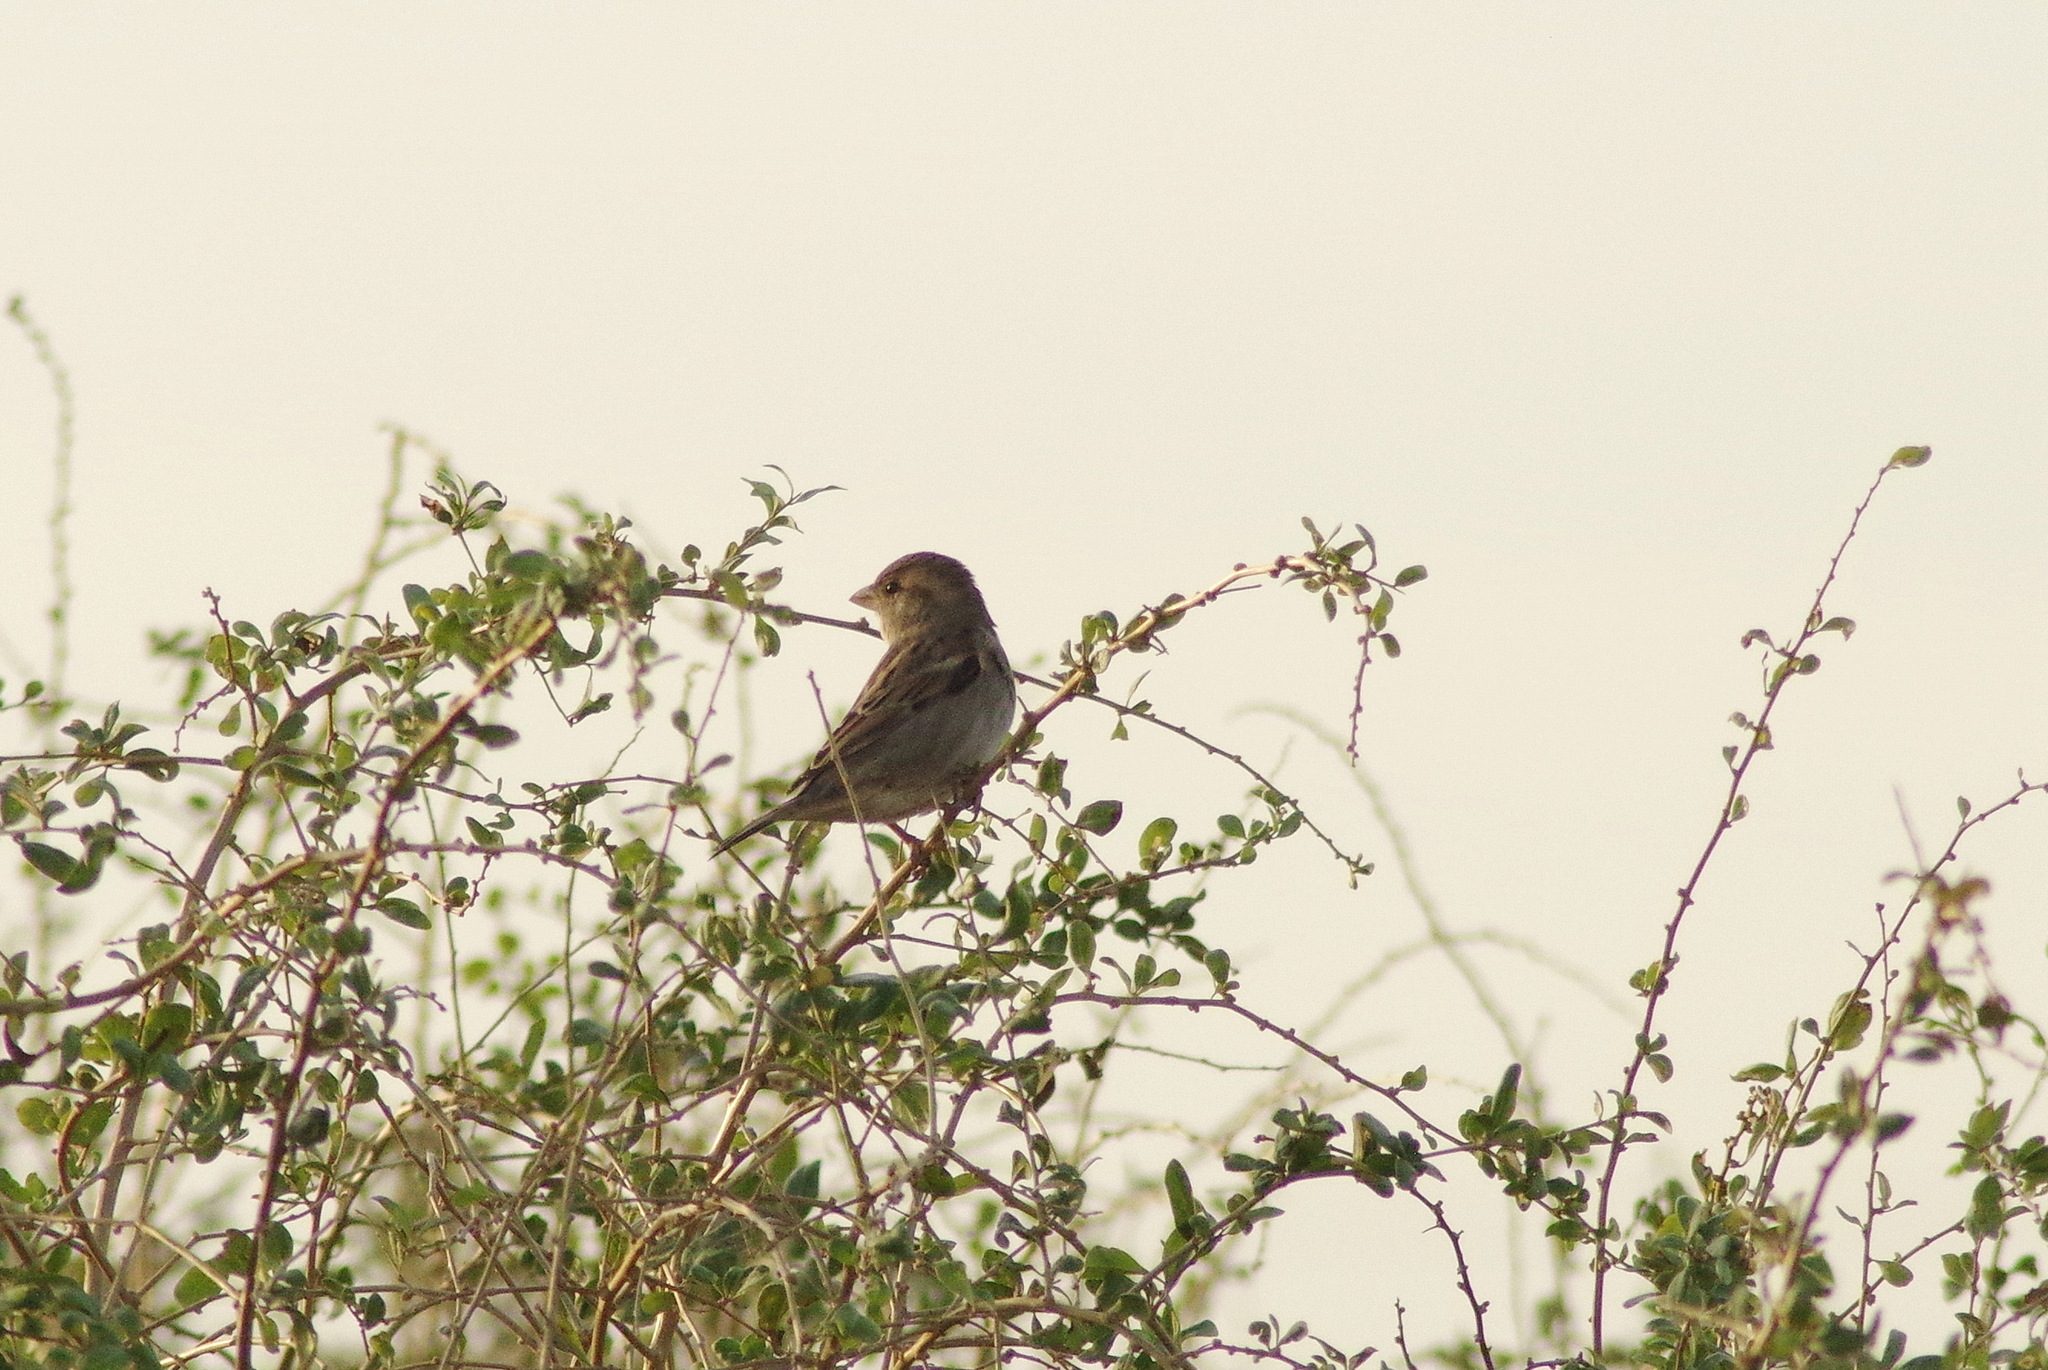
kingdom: Animalia
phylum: Chordata
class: Aves
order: Passeriformes
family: Passeridae
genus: Passer
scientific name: Passer domesticus
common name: House sparrow
